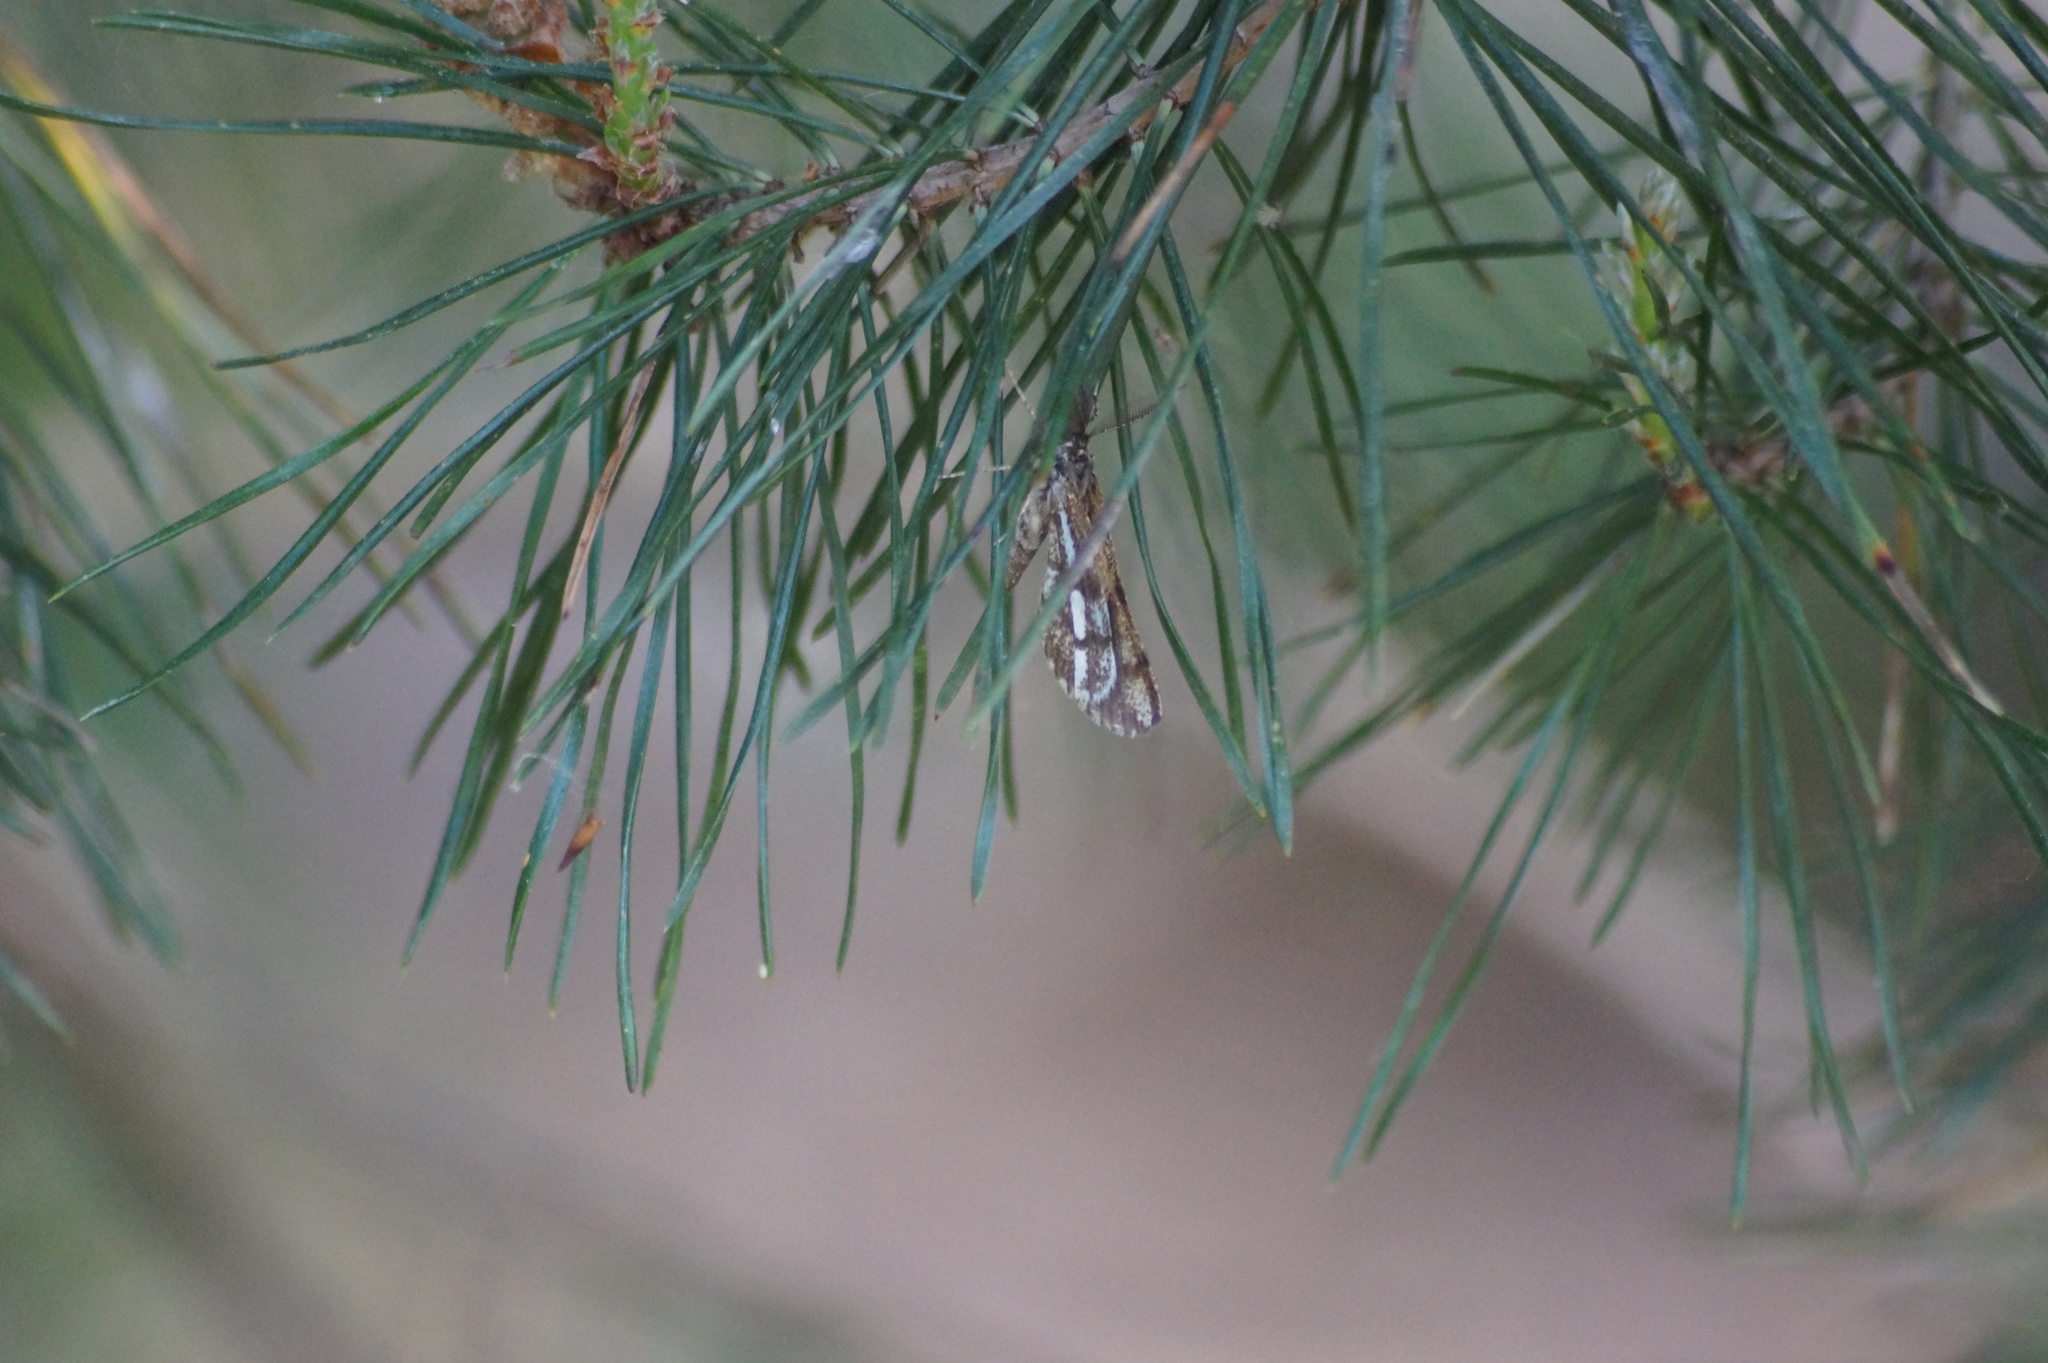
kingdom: Animalia
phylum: Arthropoda
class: Insecta
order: Lepidoptera
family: Geometridae
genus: Bupalus
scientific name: Bupalus piniaria
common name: Bordered white
